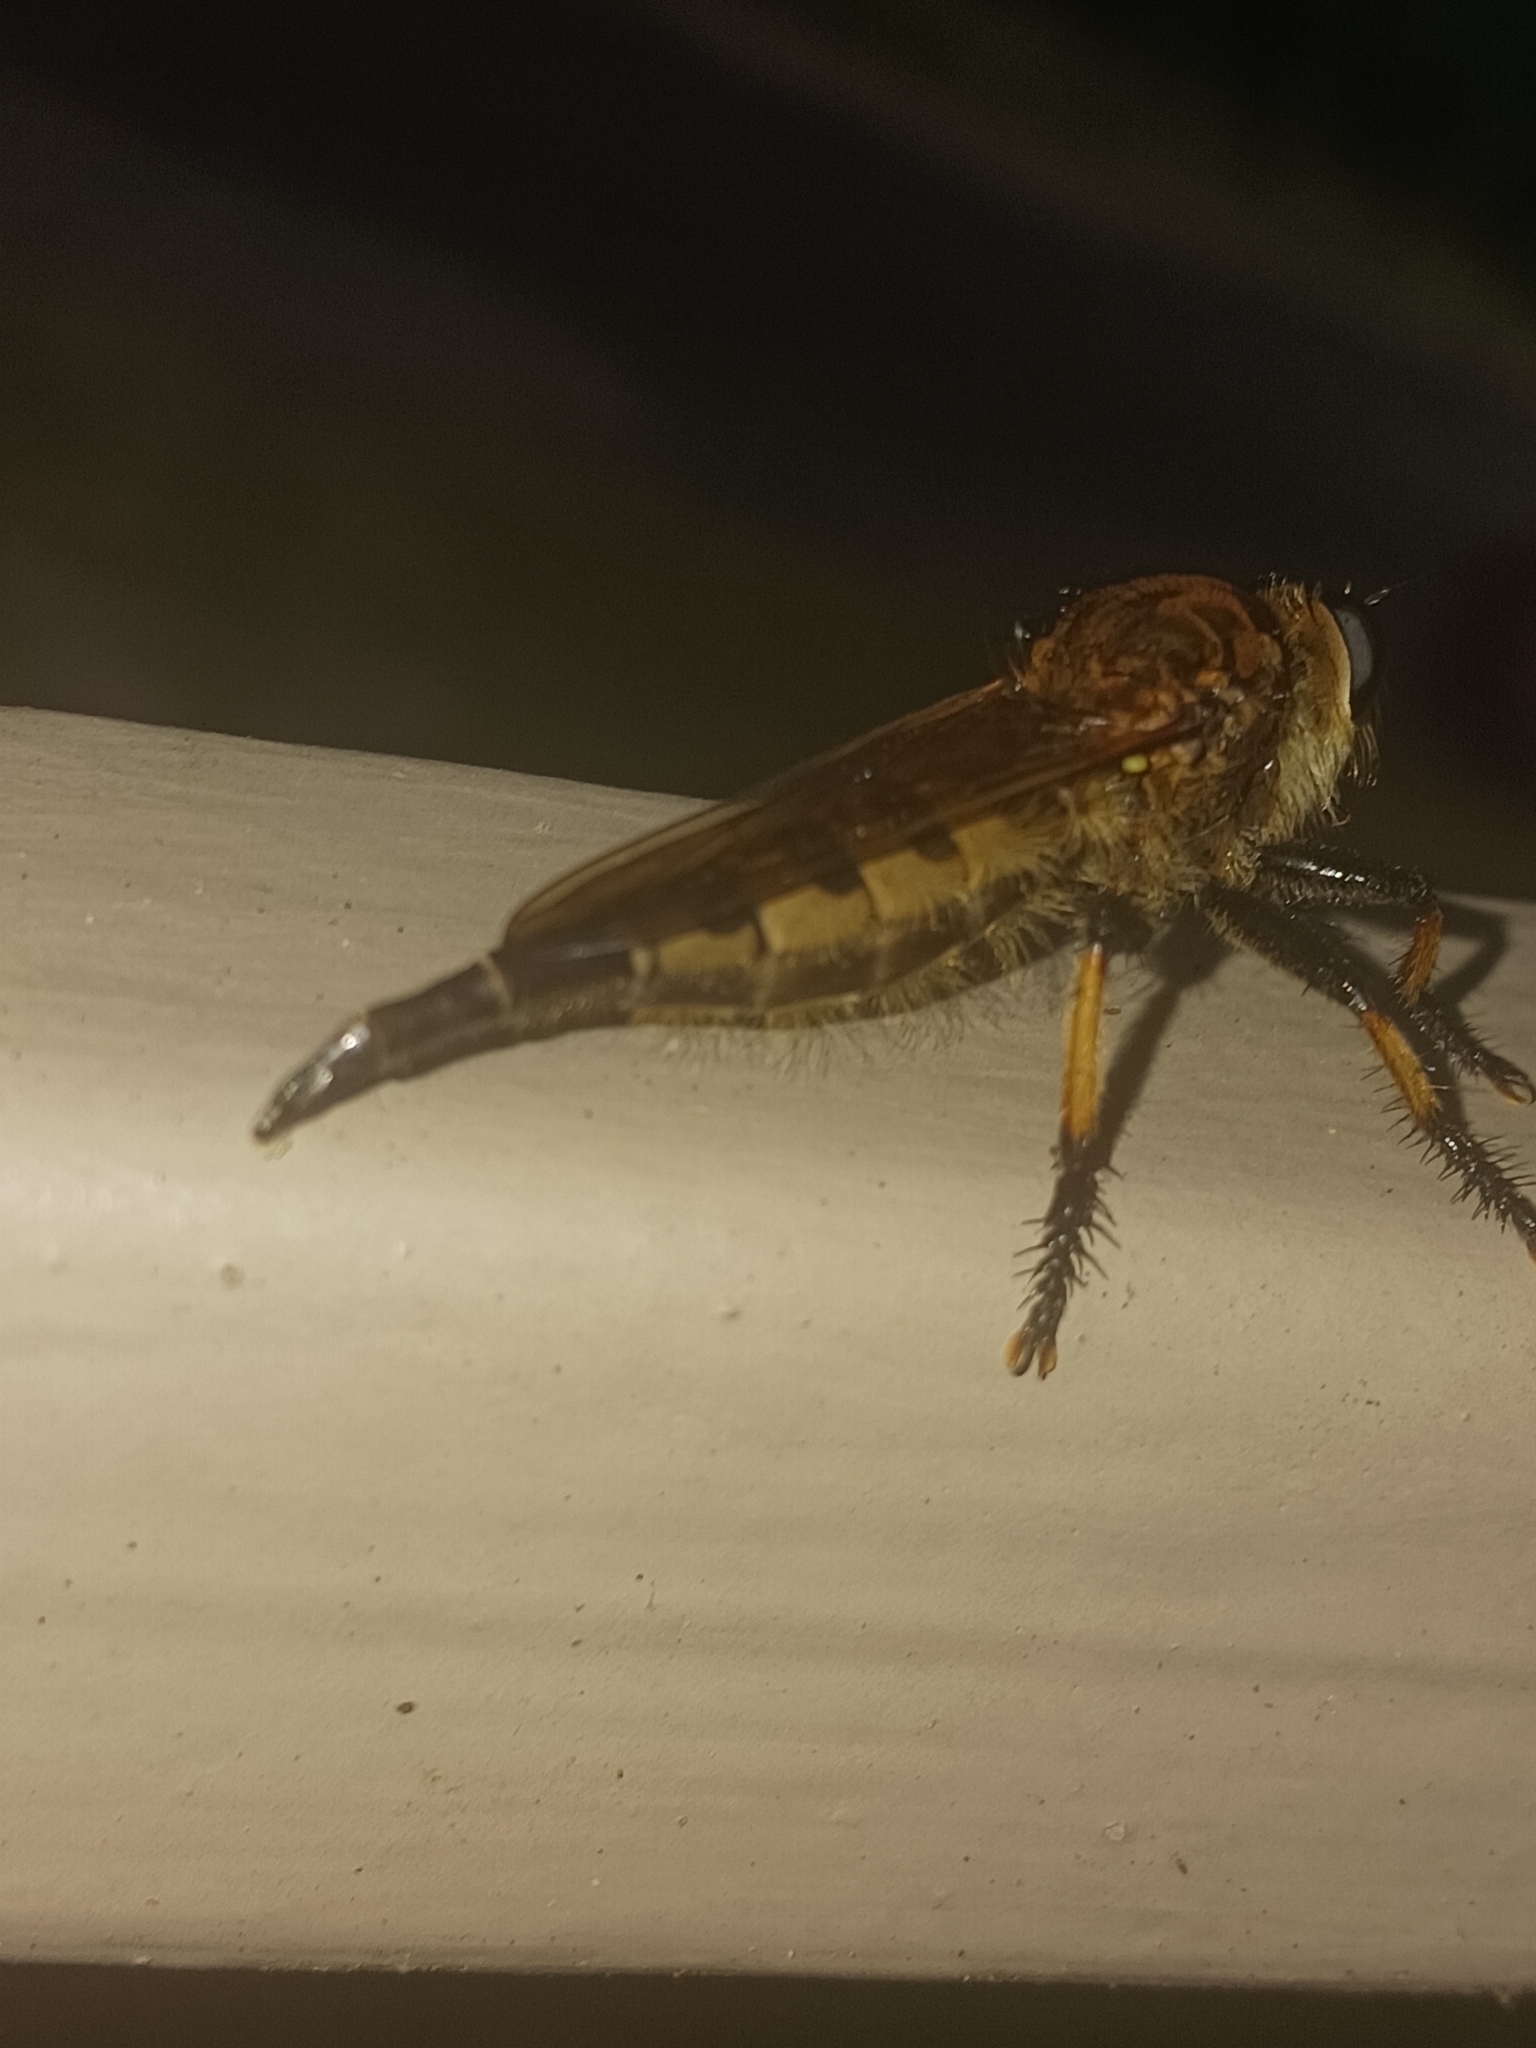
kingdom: Animalia
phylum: Arthropoda
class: Insecta
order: Diptera
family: Asilidae
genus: Promachus
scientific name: Promachus rufipes
